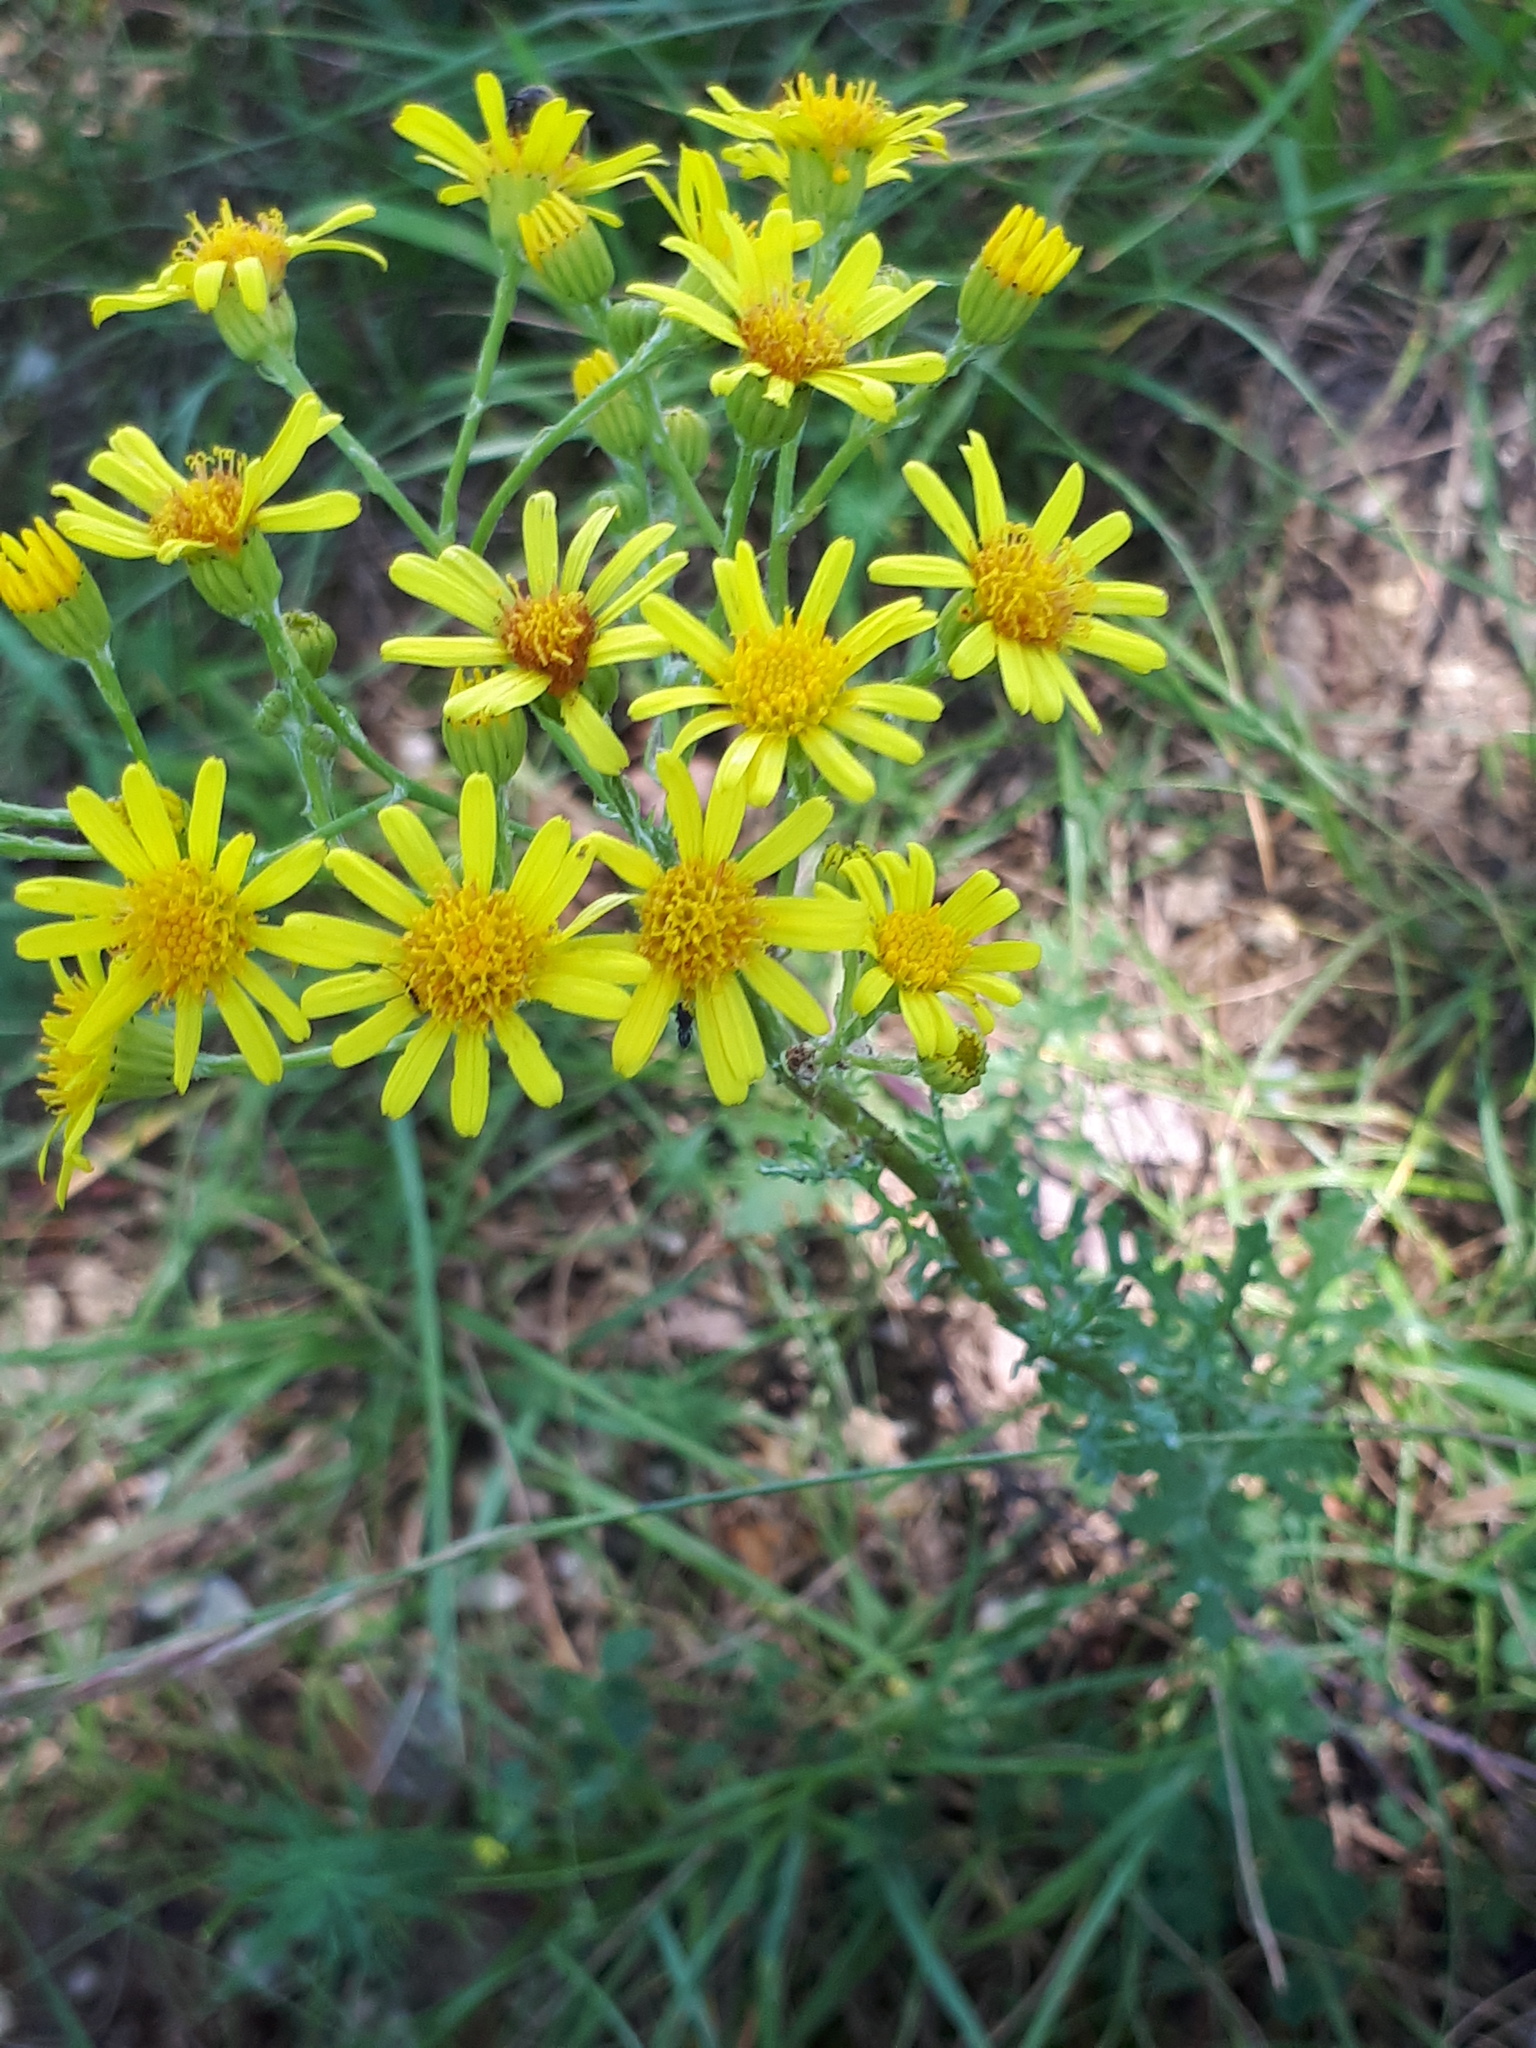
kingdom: Plantae
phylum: Tracheophyta
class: Magnoliopsida
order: Asterales
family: Asteraceae
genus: Jacobaea
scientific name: Jacobaea vulgaris
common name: Stinking willie
